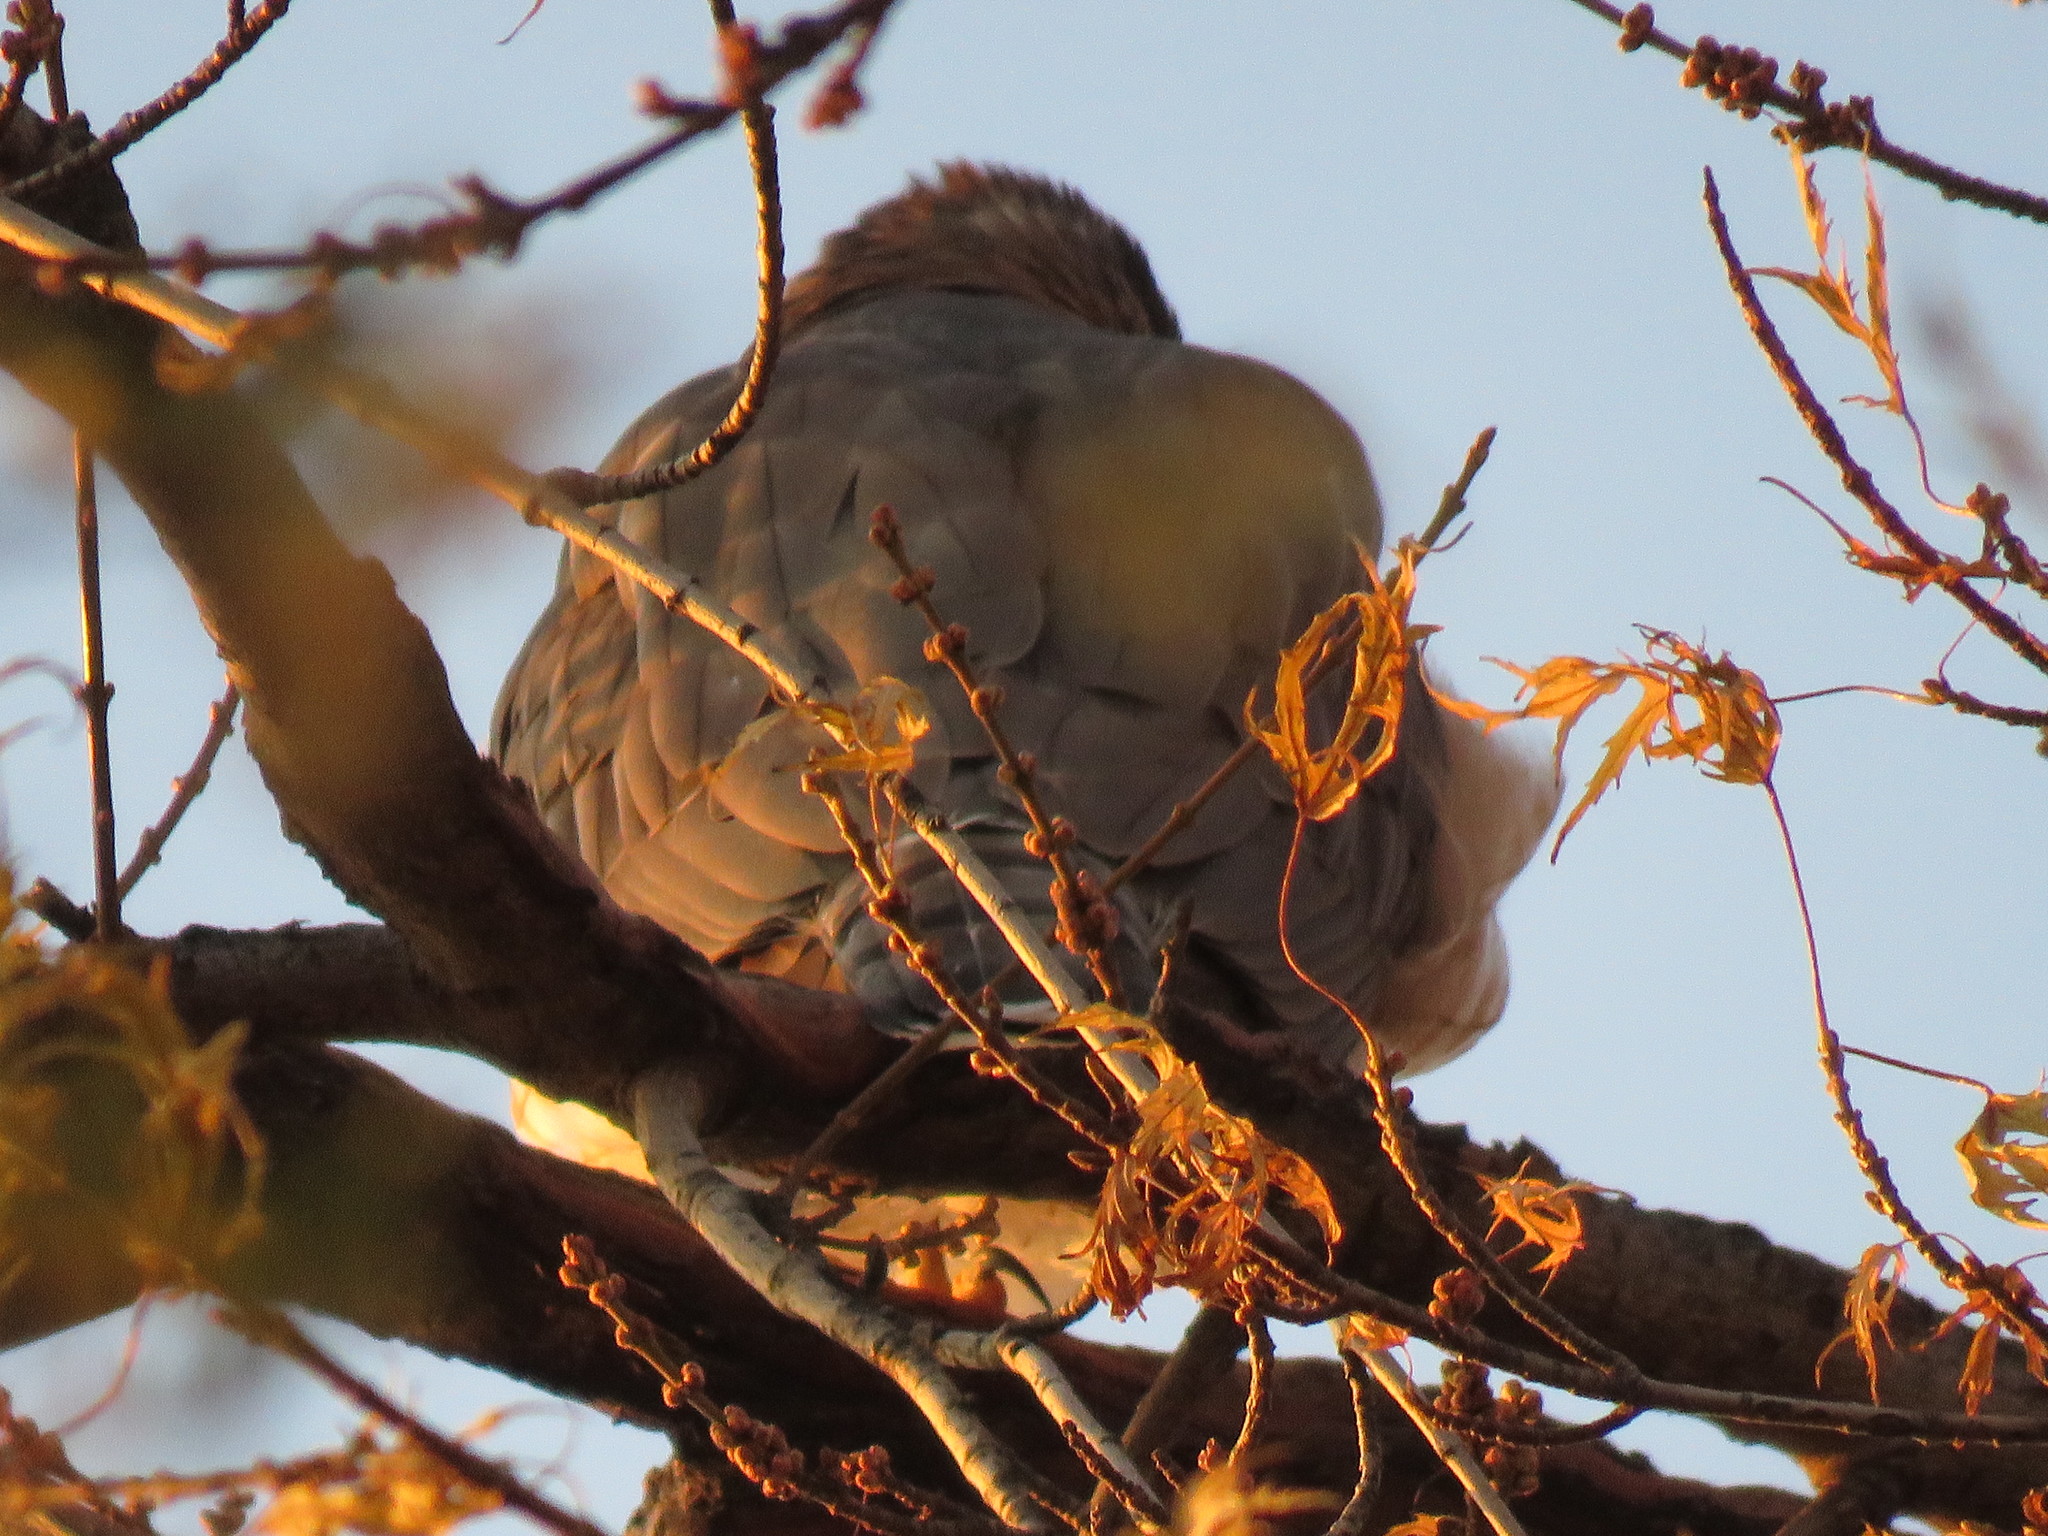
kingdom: Animalia
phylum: Chordata
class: Aves
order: Accipitriformes
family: Accipitridae
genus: Accipiter
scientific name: Accipiter cooperii
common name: Cooper's hawk
